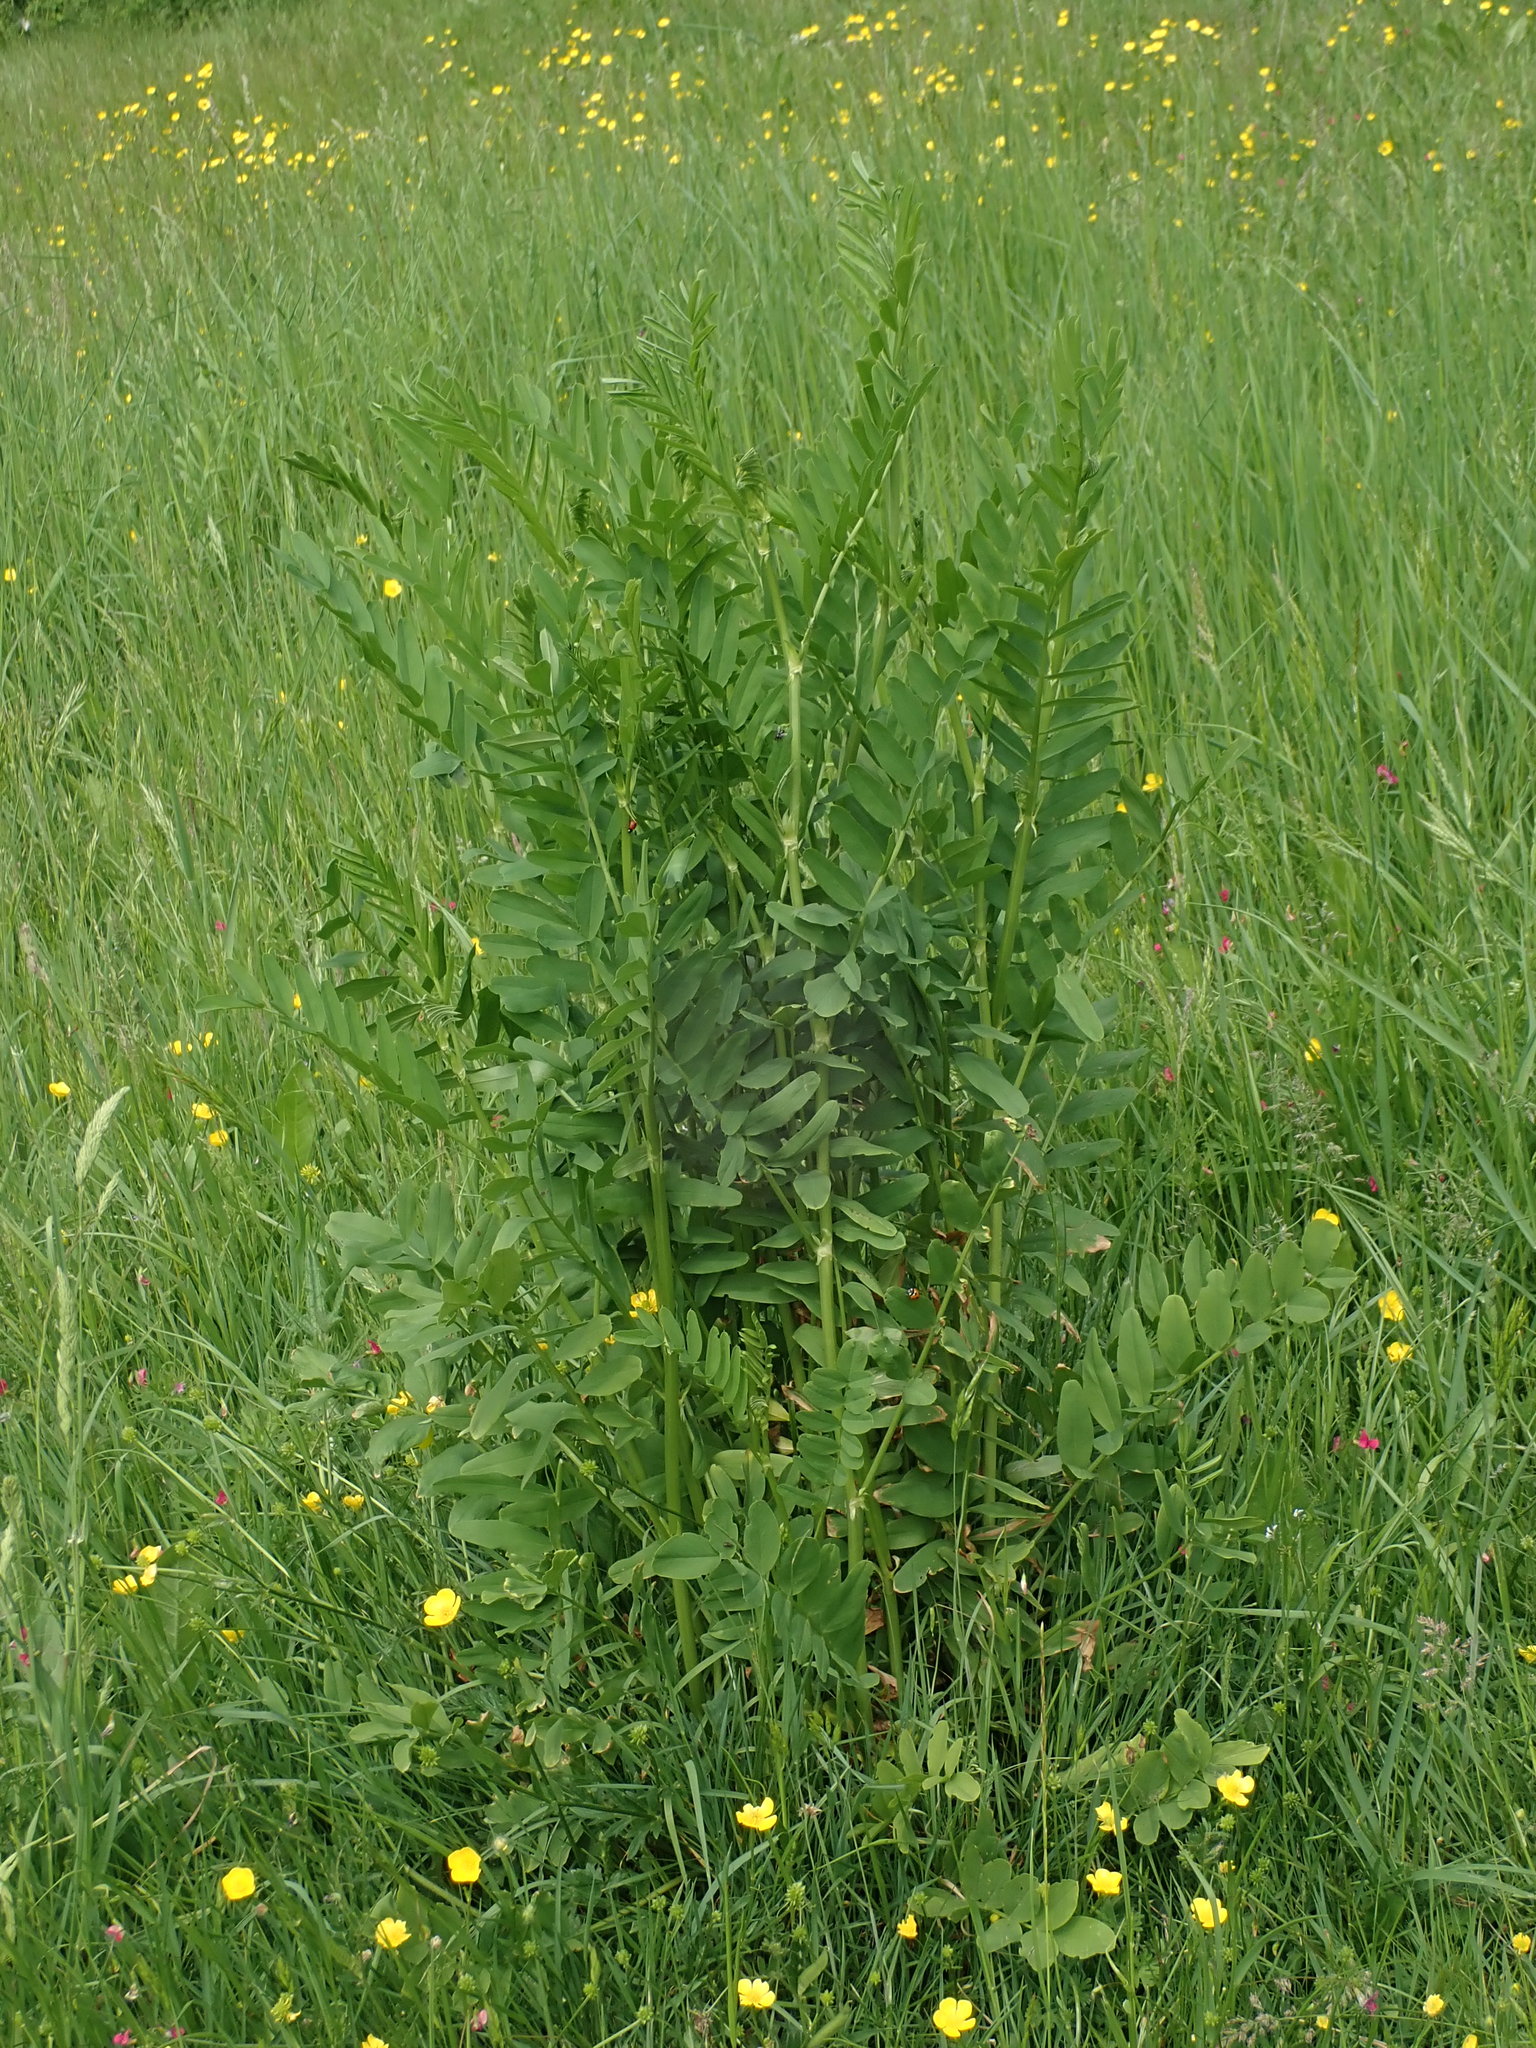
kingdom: Plantae
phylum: Tracheophyta
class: Magnoliopsida
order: Fabales
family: Fabaceae
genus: Galega
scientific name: Galega officinalis
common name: Goat's-rue
